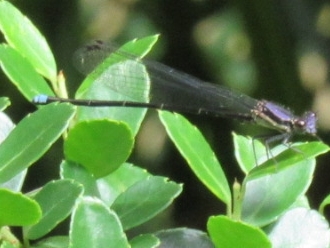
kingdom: Animalia
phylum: Arthropoda
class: Insecta
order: Odonata
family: Coenagrionidae
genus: Argia
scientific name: Argia tibialis
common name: Blue-tipped dancer
